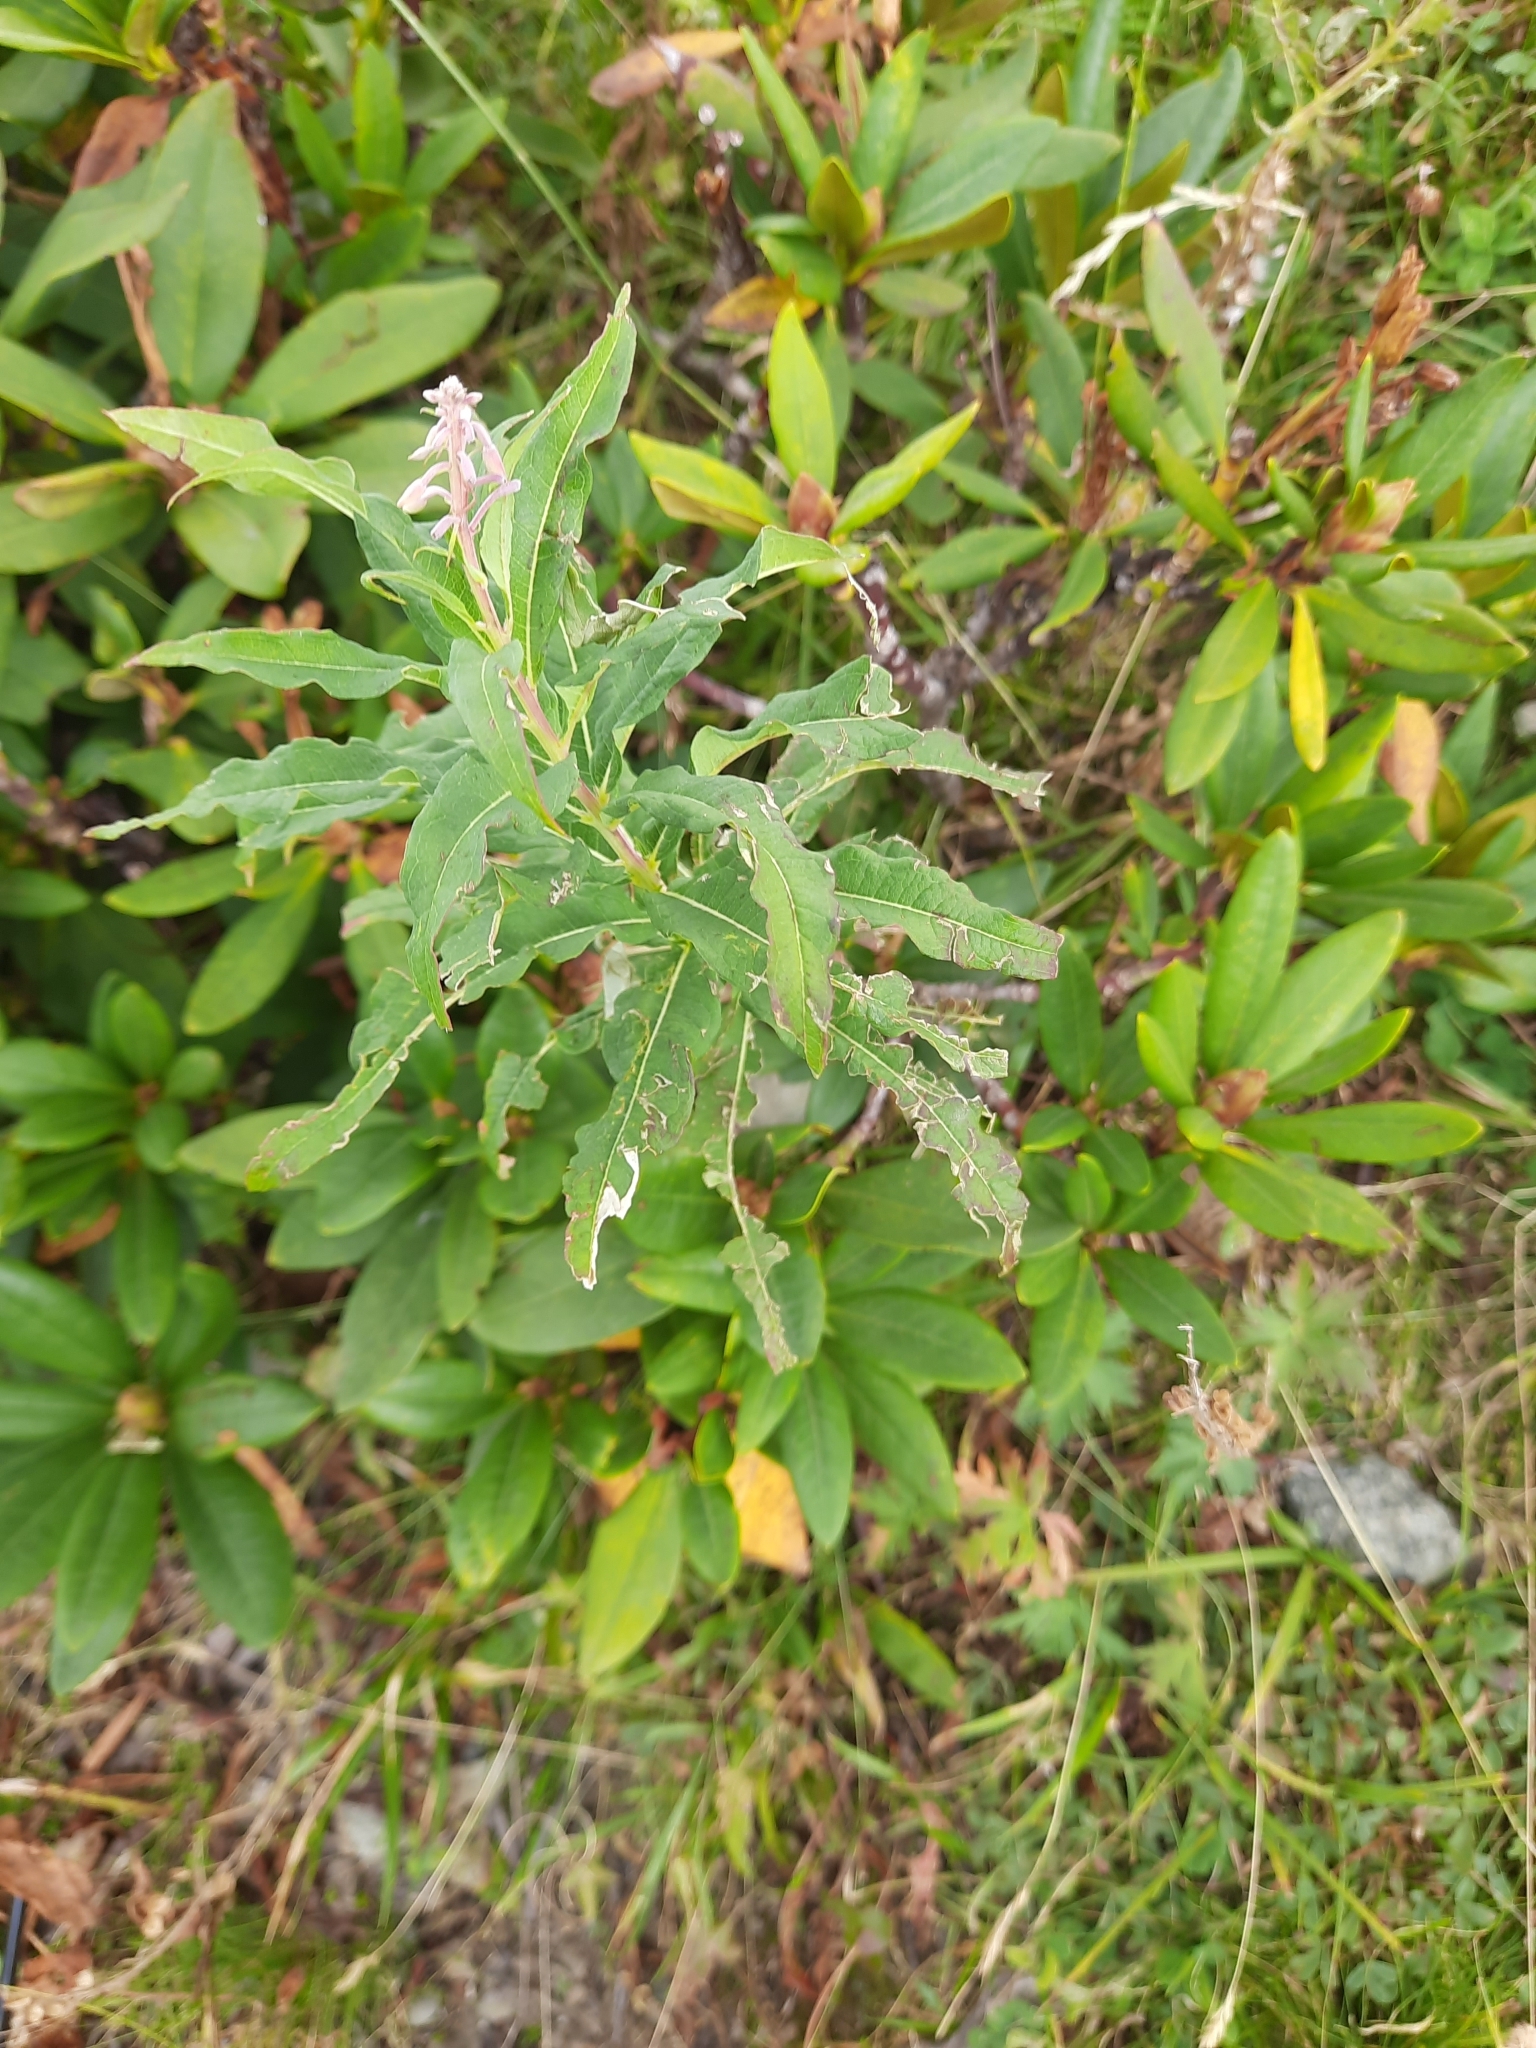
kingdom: Plantae
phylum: Tracheophyta
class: Magnoliopsida
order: Myrtales
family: Onagraceae
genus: Chamaenerion
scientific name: Chamaenerion angustifolium
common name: Fireweed
